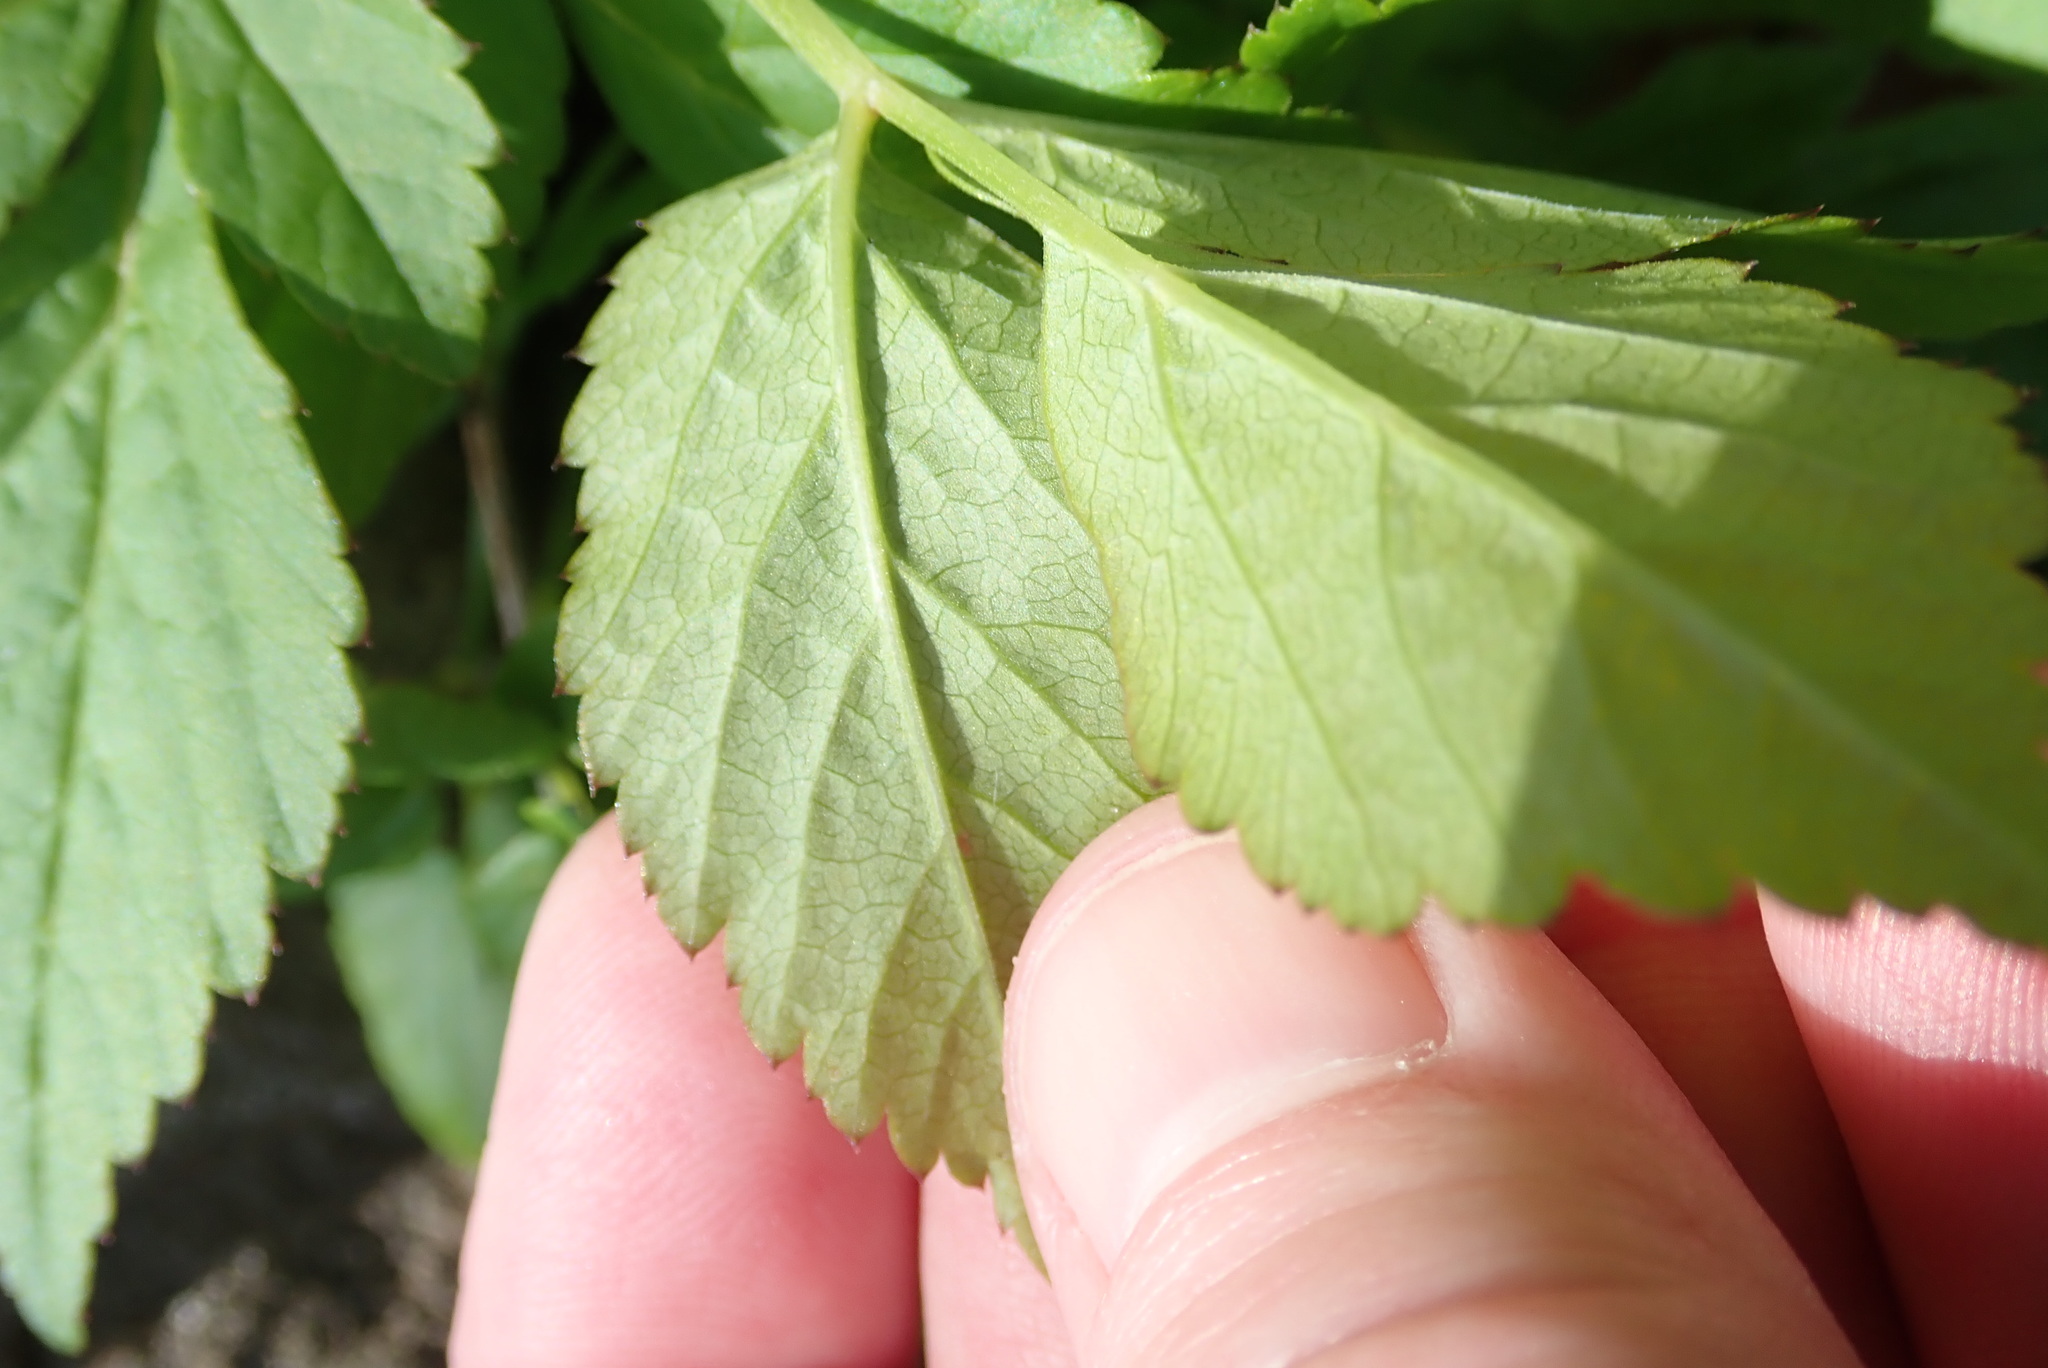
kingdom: Plantae
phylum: Tracheophyta
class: Magnoliopsida
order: Apiales
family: Apiaceae
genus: Aegopodium
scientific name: Aegopodium podagraria
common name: Ground-elder
